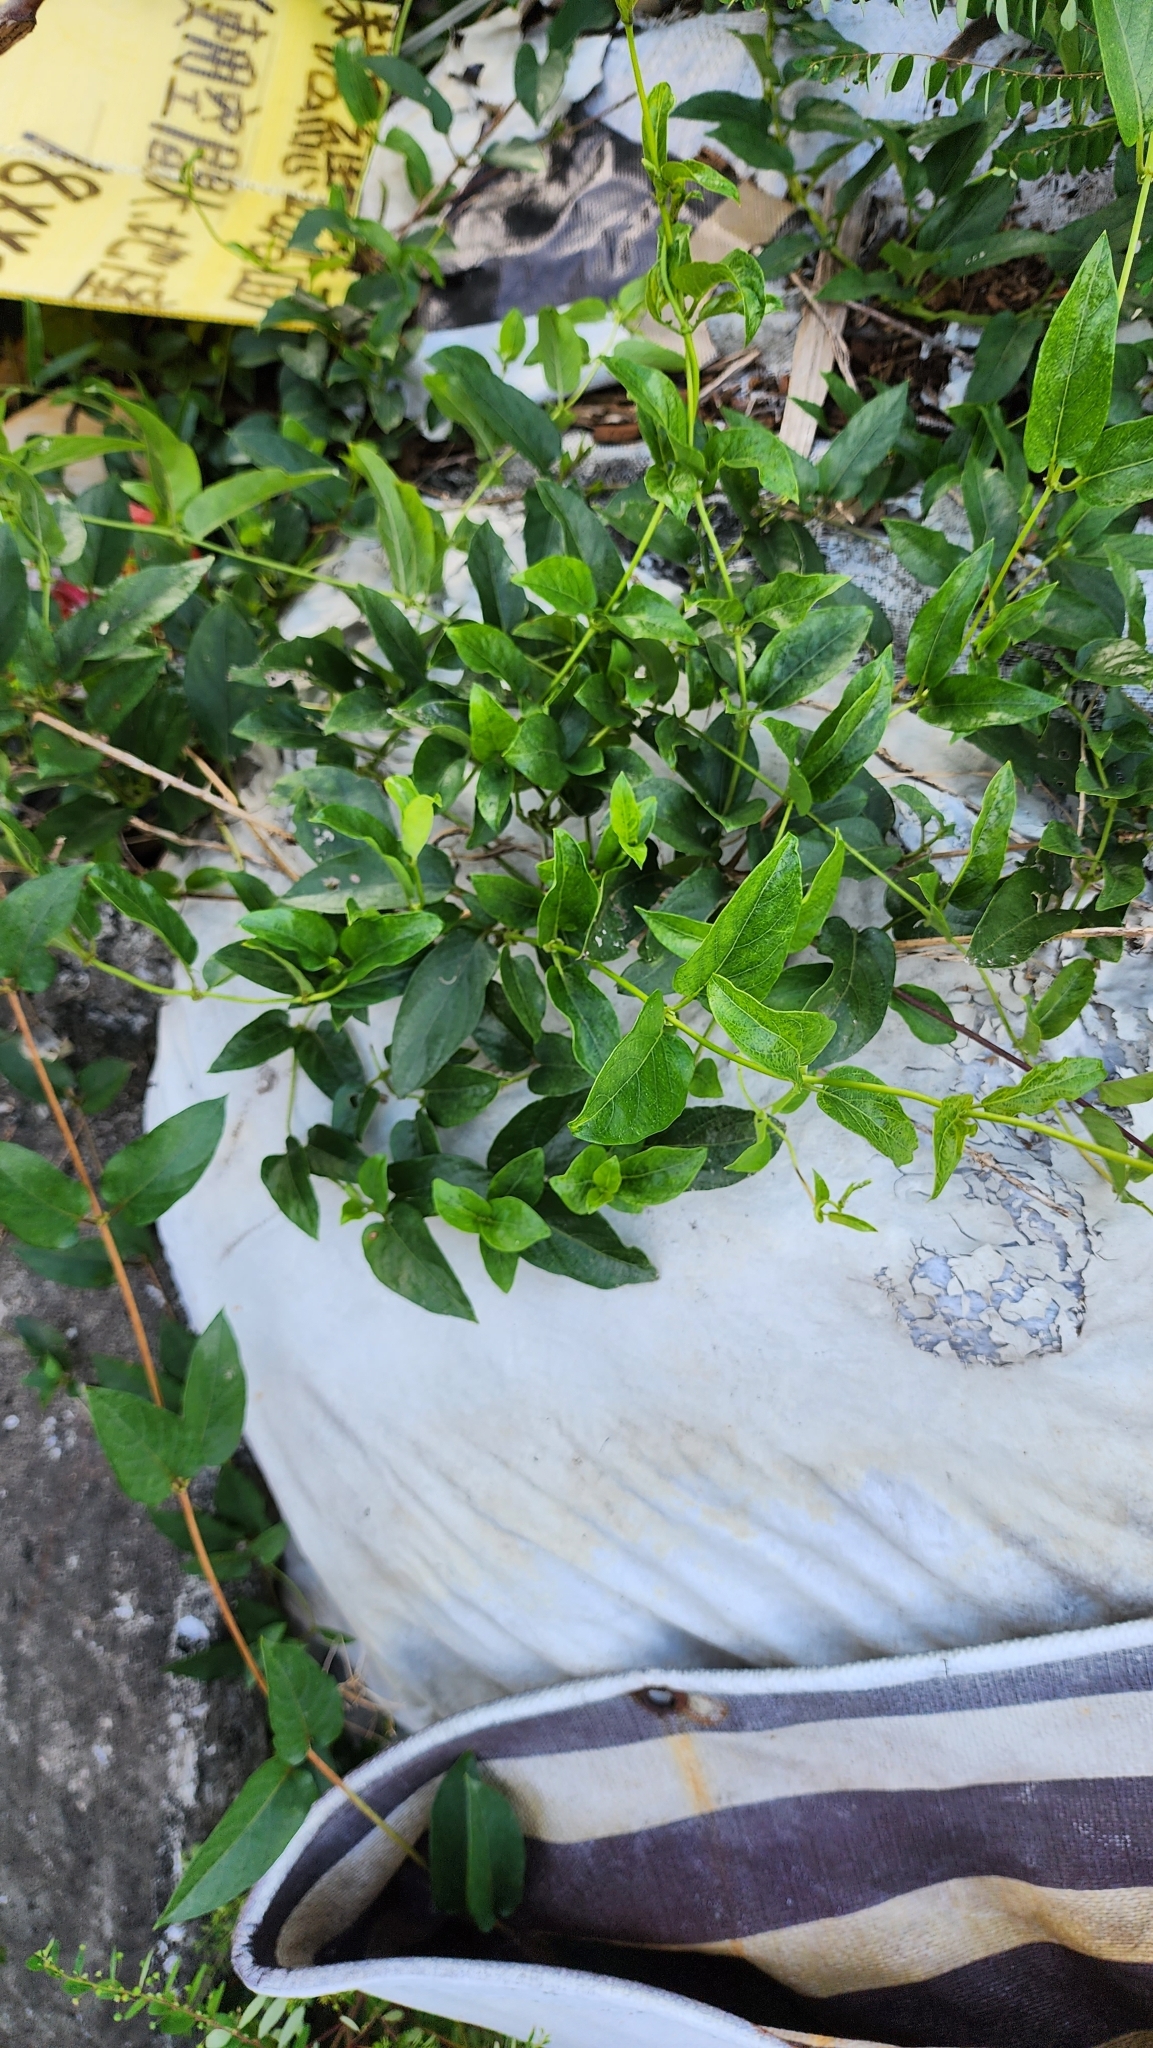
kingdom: Plantae
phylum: Tracheophyta
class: Magnoliopsida
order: Gentianales
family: Rubiaceae
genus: Paederia
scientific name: Paederia foetida
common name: Stinkvine
